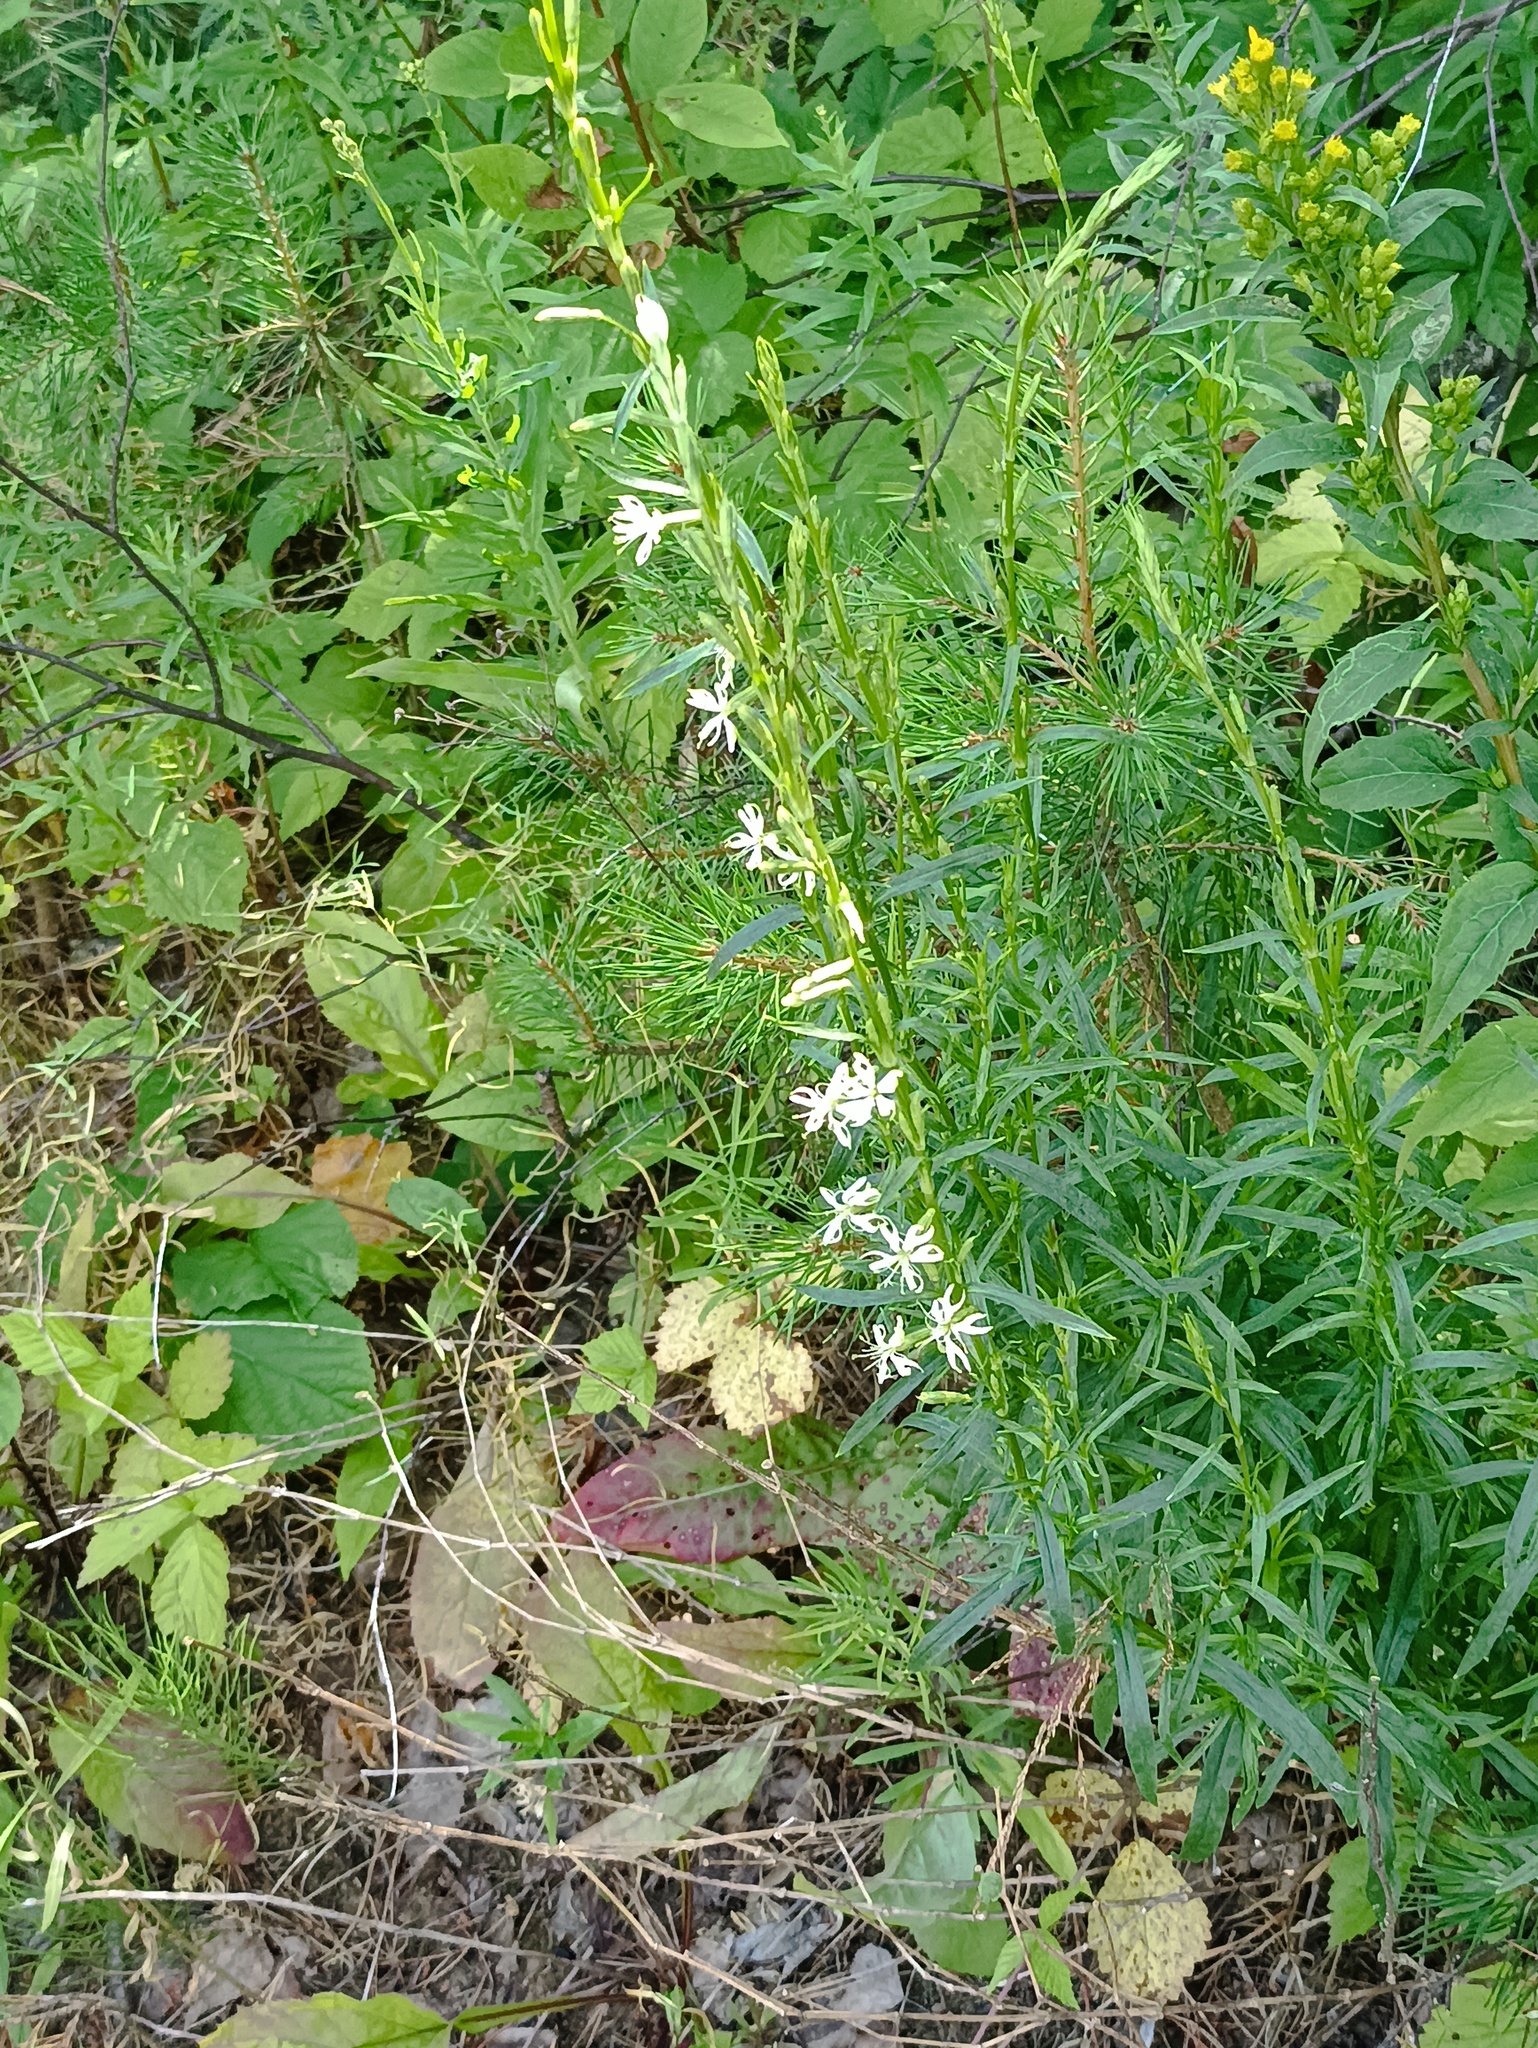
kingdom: Plantae
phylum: Tracheophyta
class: Magnoliopsida
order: Caryophyllales
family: Caryophyllaceae
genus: Silene
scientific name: Silene tatarica
